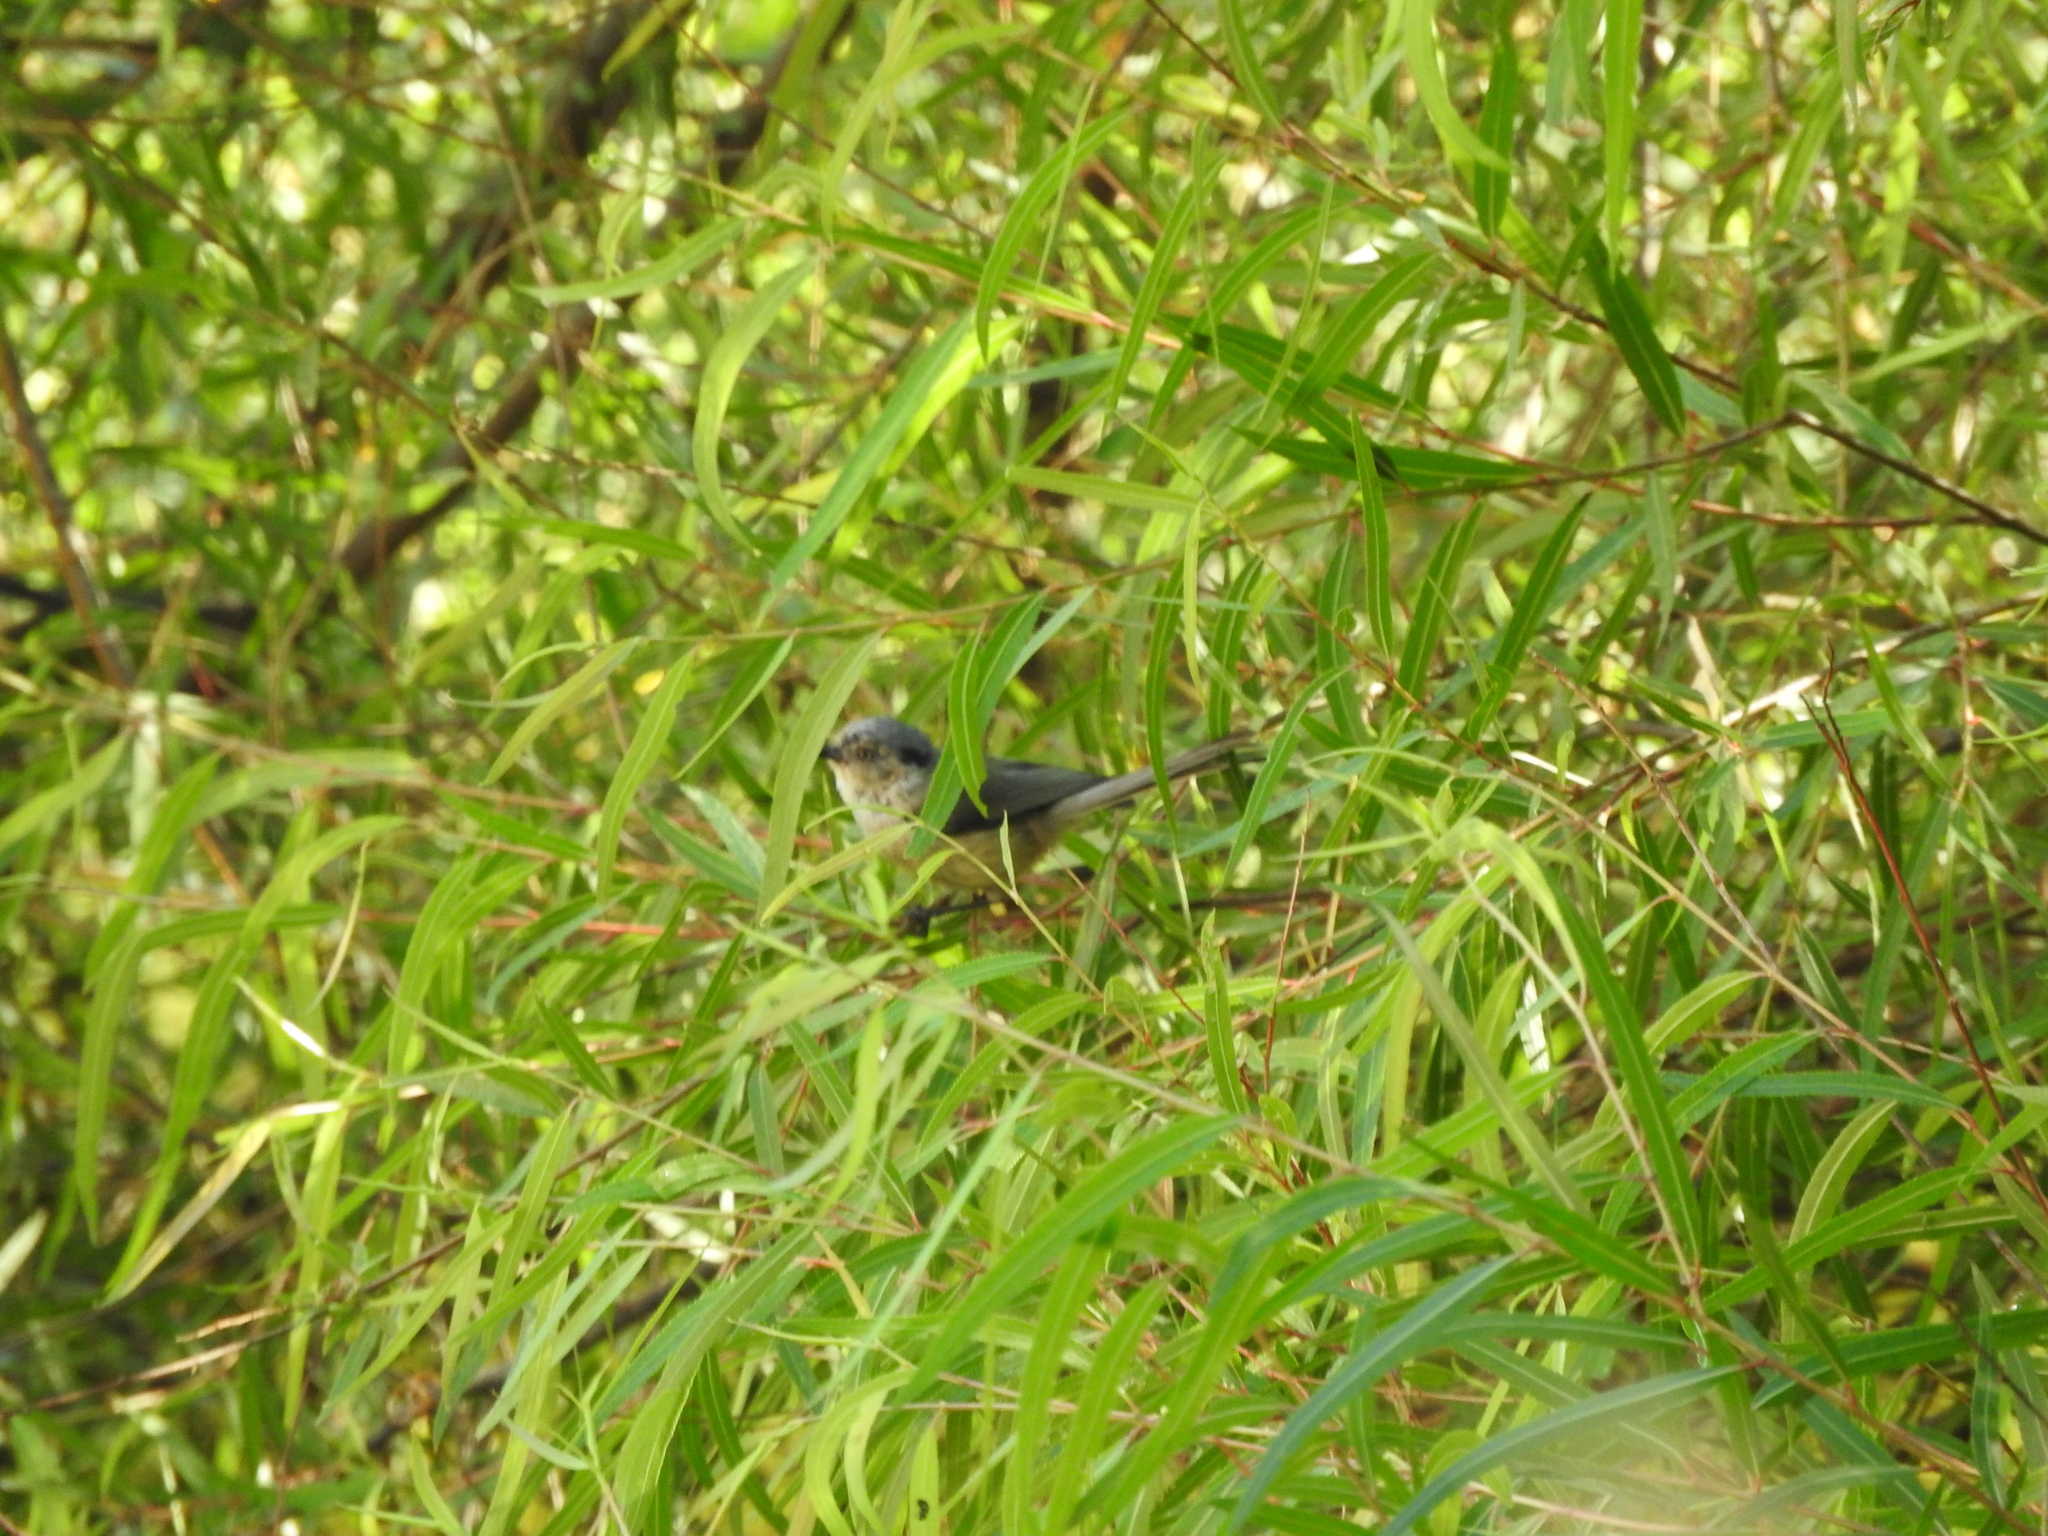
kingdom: Animalia
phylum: Chordata
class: Aves
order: Passeriformes
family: Aegithalidae
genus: Psaltriparus
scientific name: Psaltriparus minimus
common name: American bushtit
